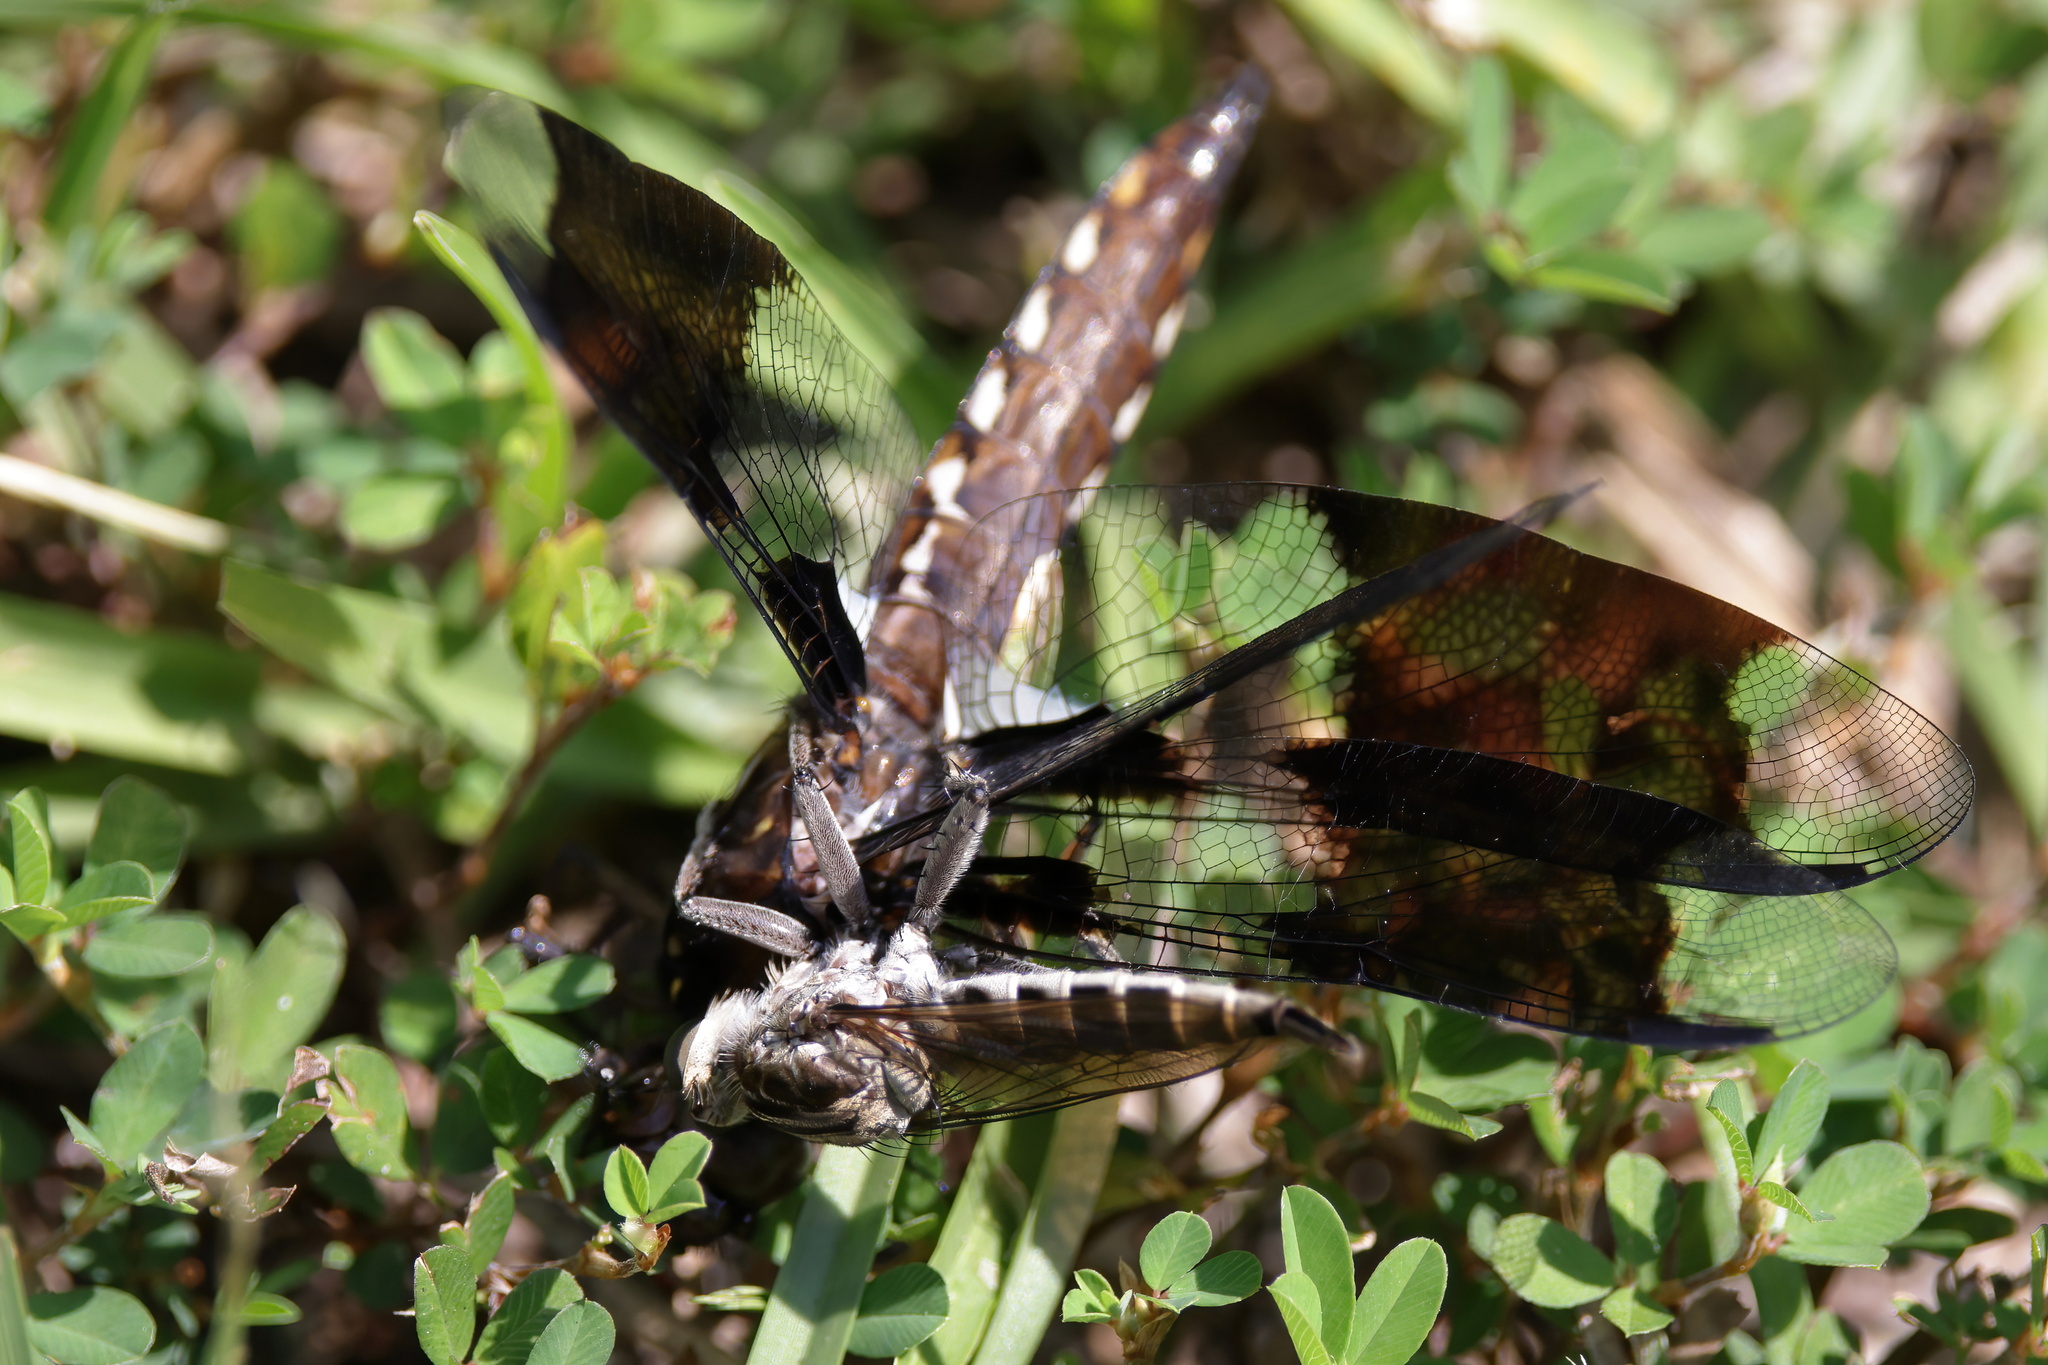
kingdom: Animalia
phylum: Arthropoda
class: Insecta
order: Diptera
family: Asilidae
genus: Triorla
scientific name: Triorla interrupta
